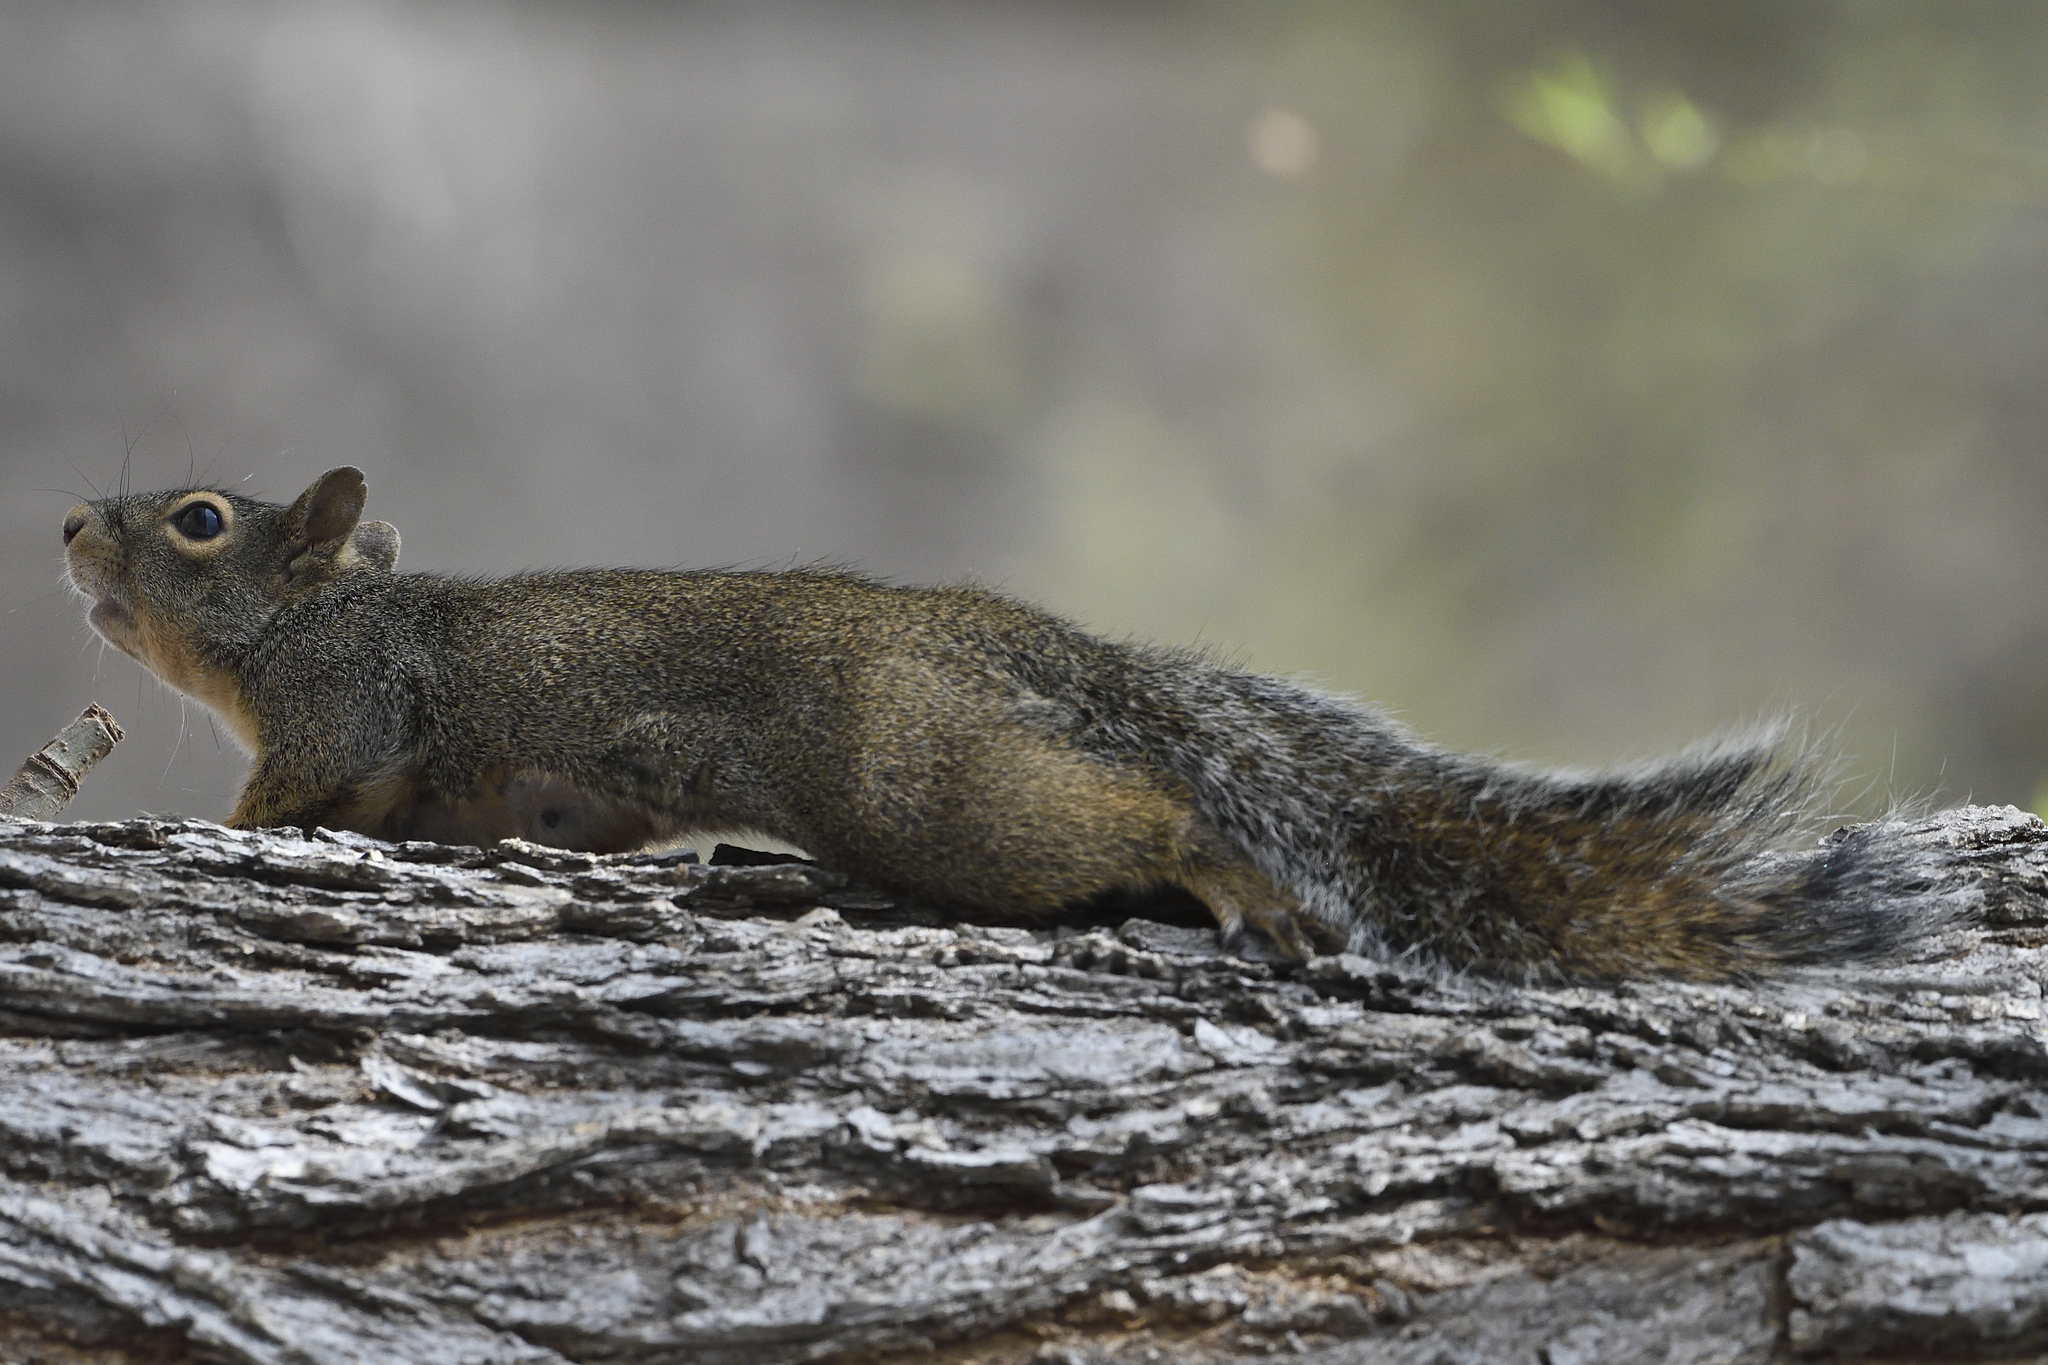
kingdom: Animalia
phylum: Chordata
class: Mammalia
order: Rodentia
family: Sciuridae
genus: Sciurus
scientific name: Sciurus niger
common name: Fox squirrel
